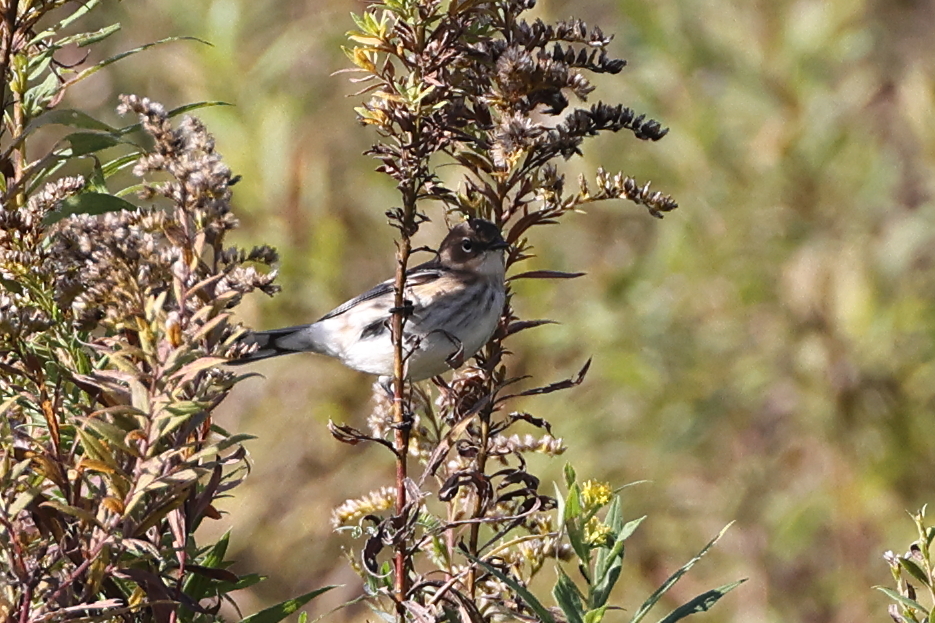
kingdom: Animalia
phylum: Chordata
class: Aves
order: Passeriformes
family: Parulidae
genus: Setophaga
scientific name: Setophaga coronata
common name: Myrtle warbler
